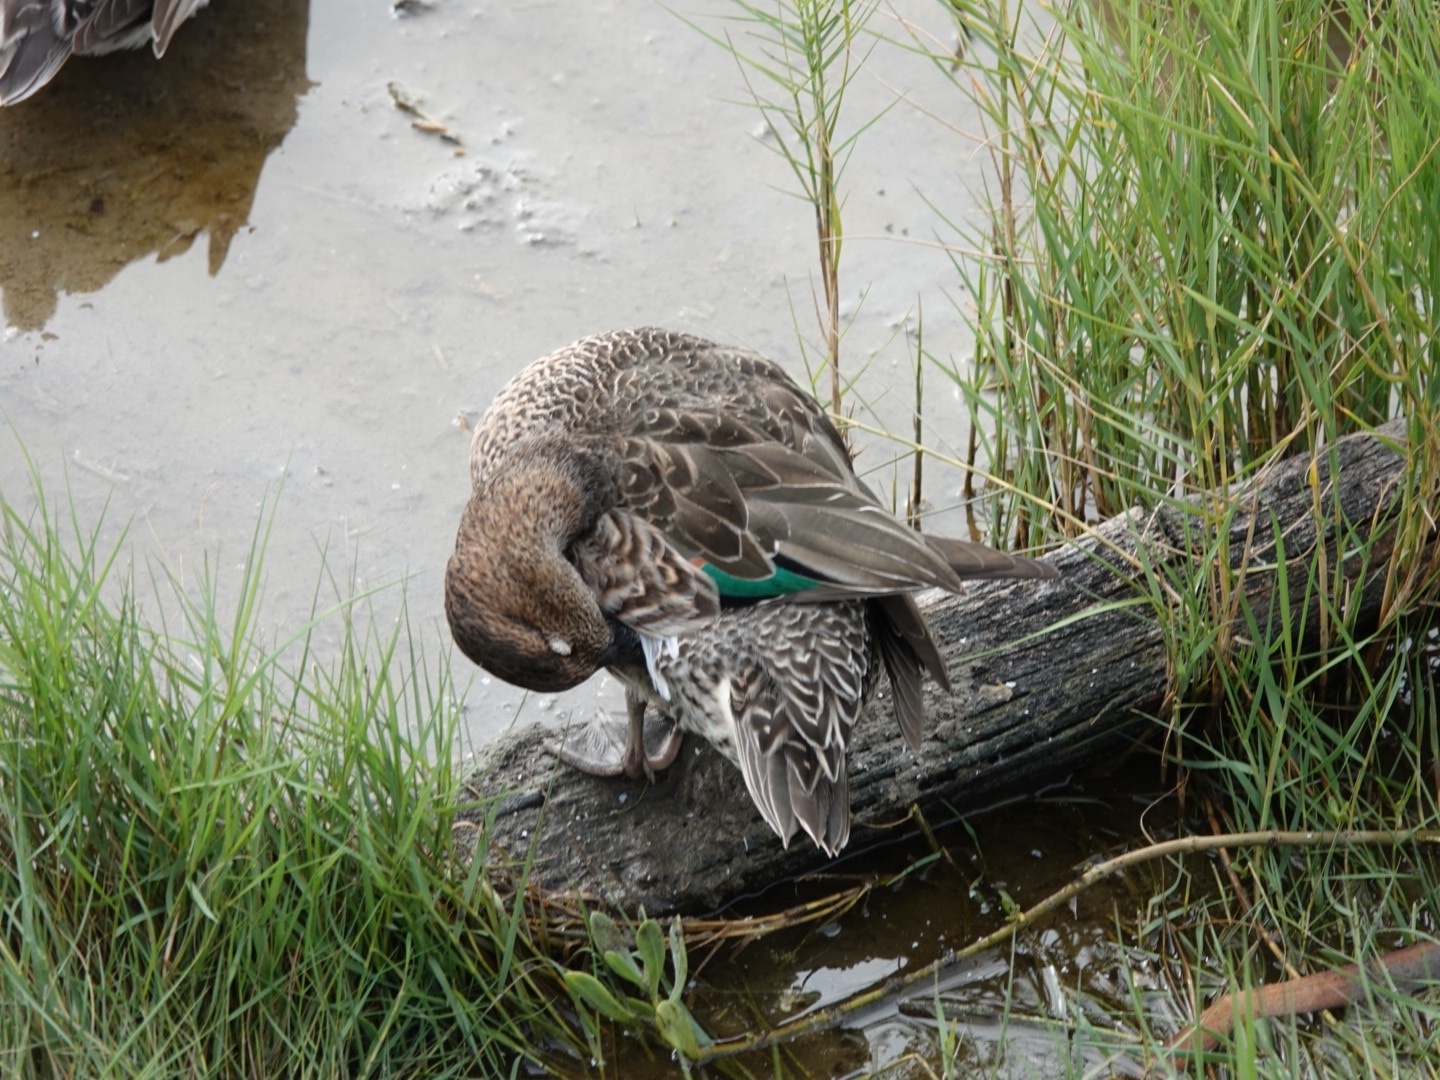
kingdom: Animalia
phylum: Chordata
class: Aves
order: Anseriformes
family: Anatidae
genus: Anas
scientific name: Anas crecca
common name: Eurasian teal
